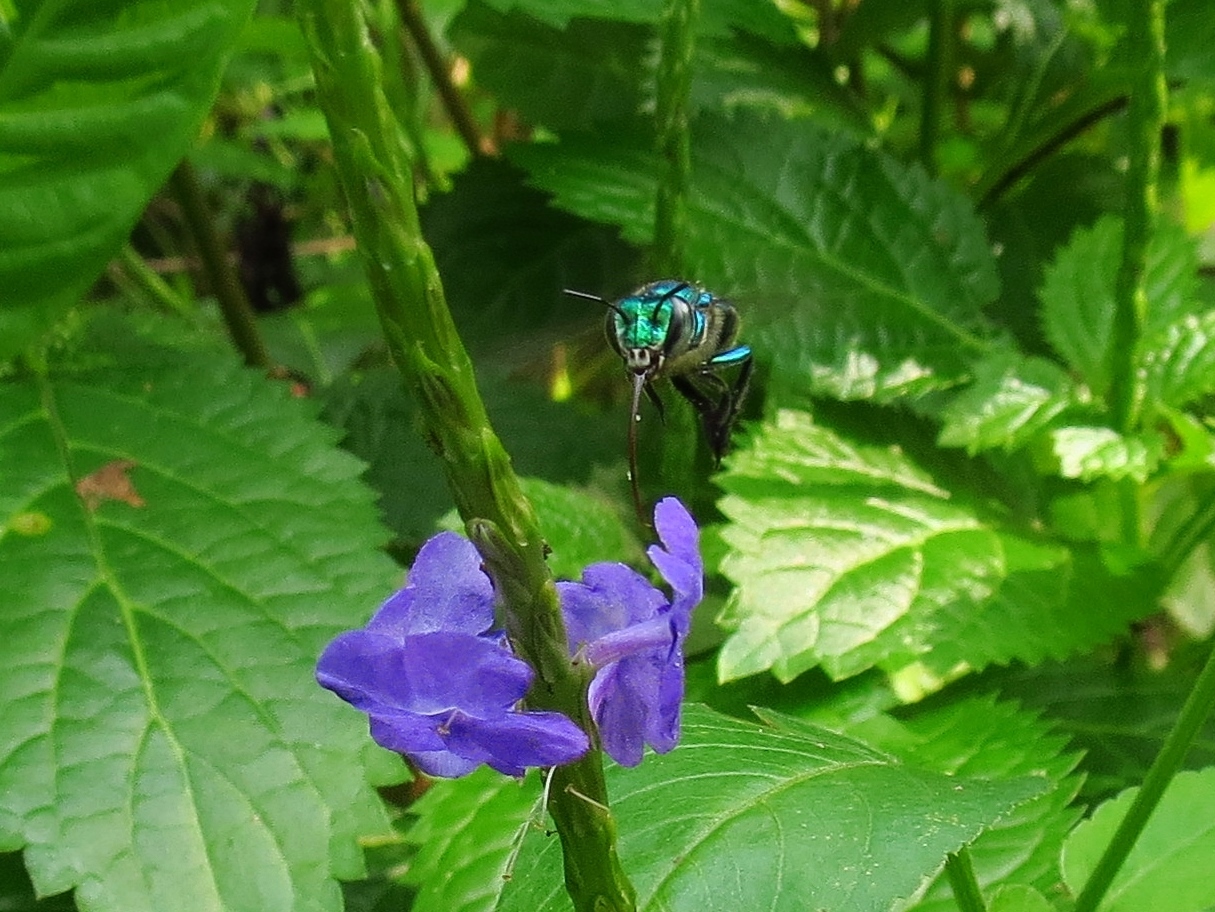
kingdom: Plantae
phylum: Tracheophyta
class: Magnoliopsida
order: Lamiales
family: Verbenaceae
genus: Stachytarpheta
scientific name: Stachytarpheta jamaicensis
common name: Light-blue snakeweed
